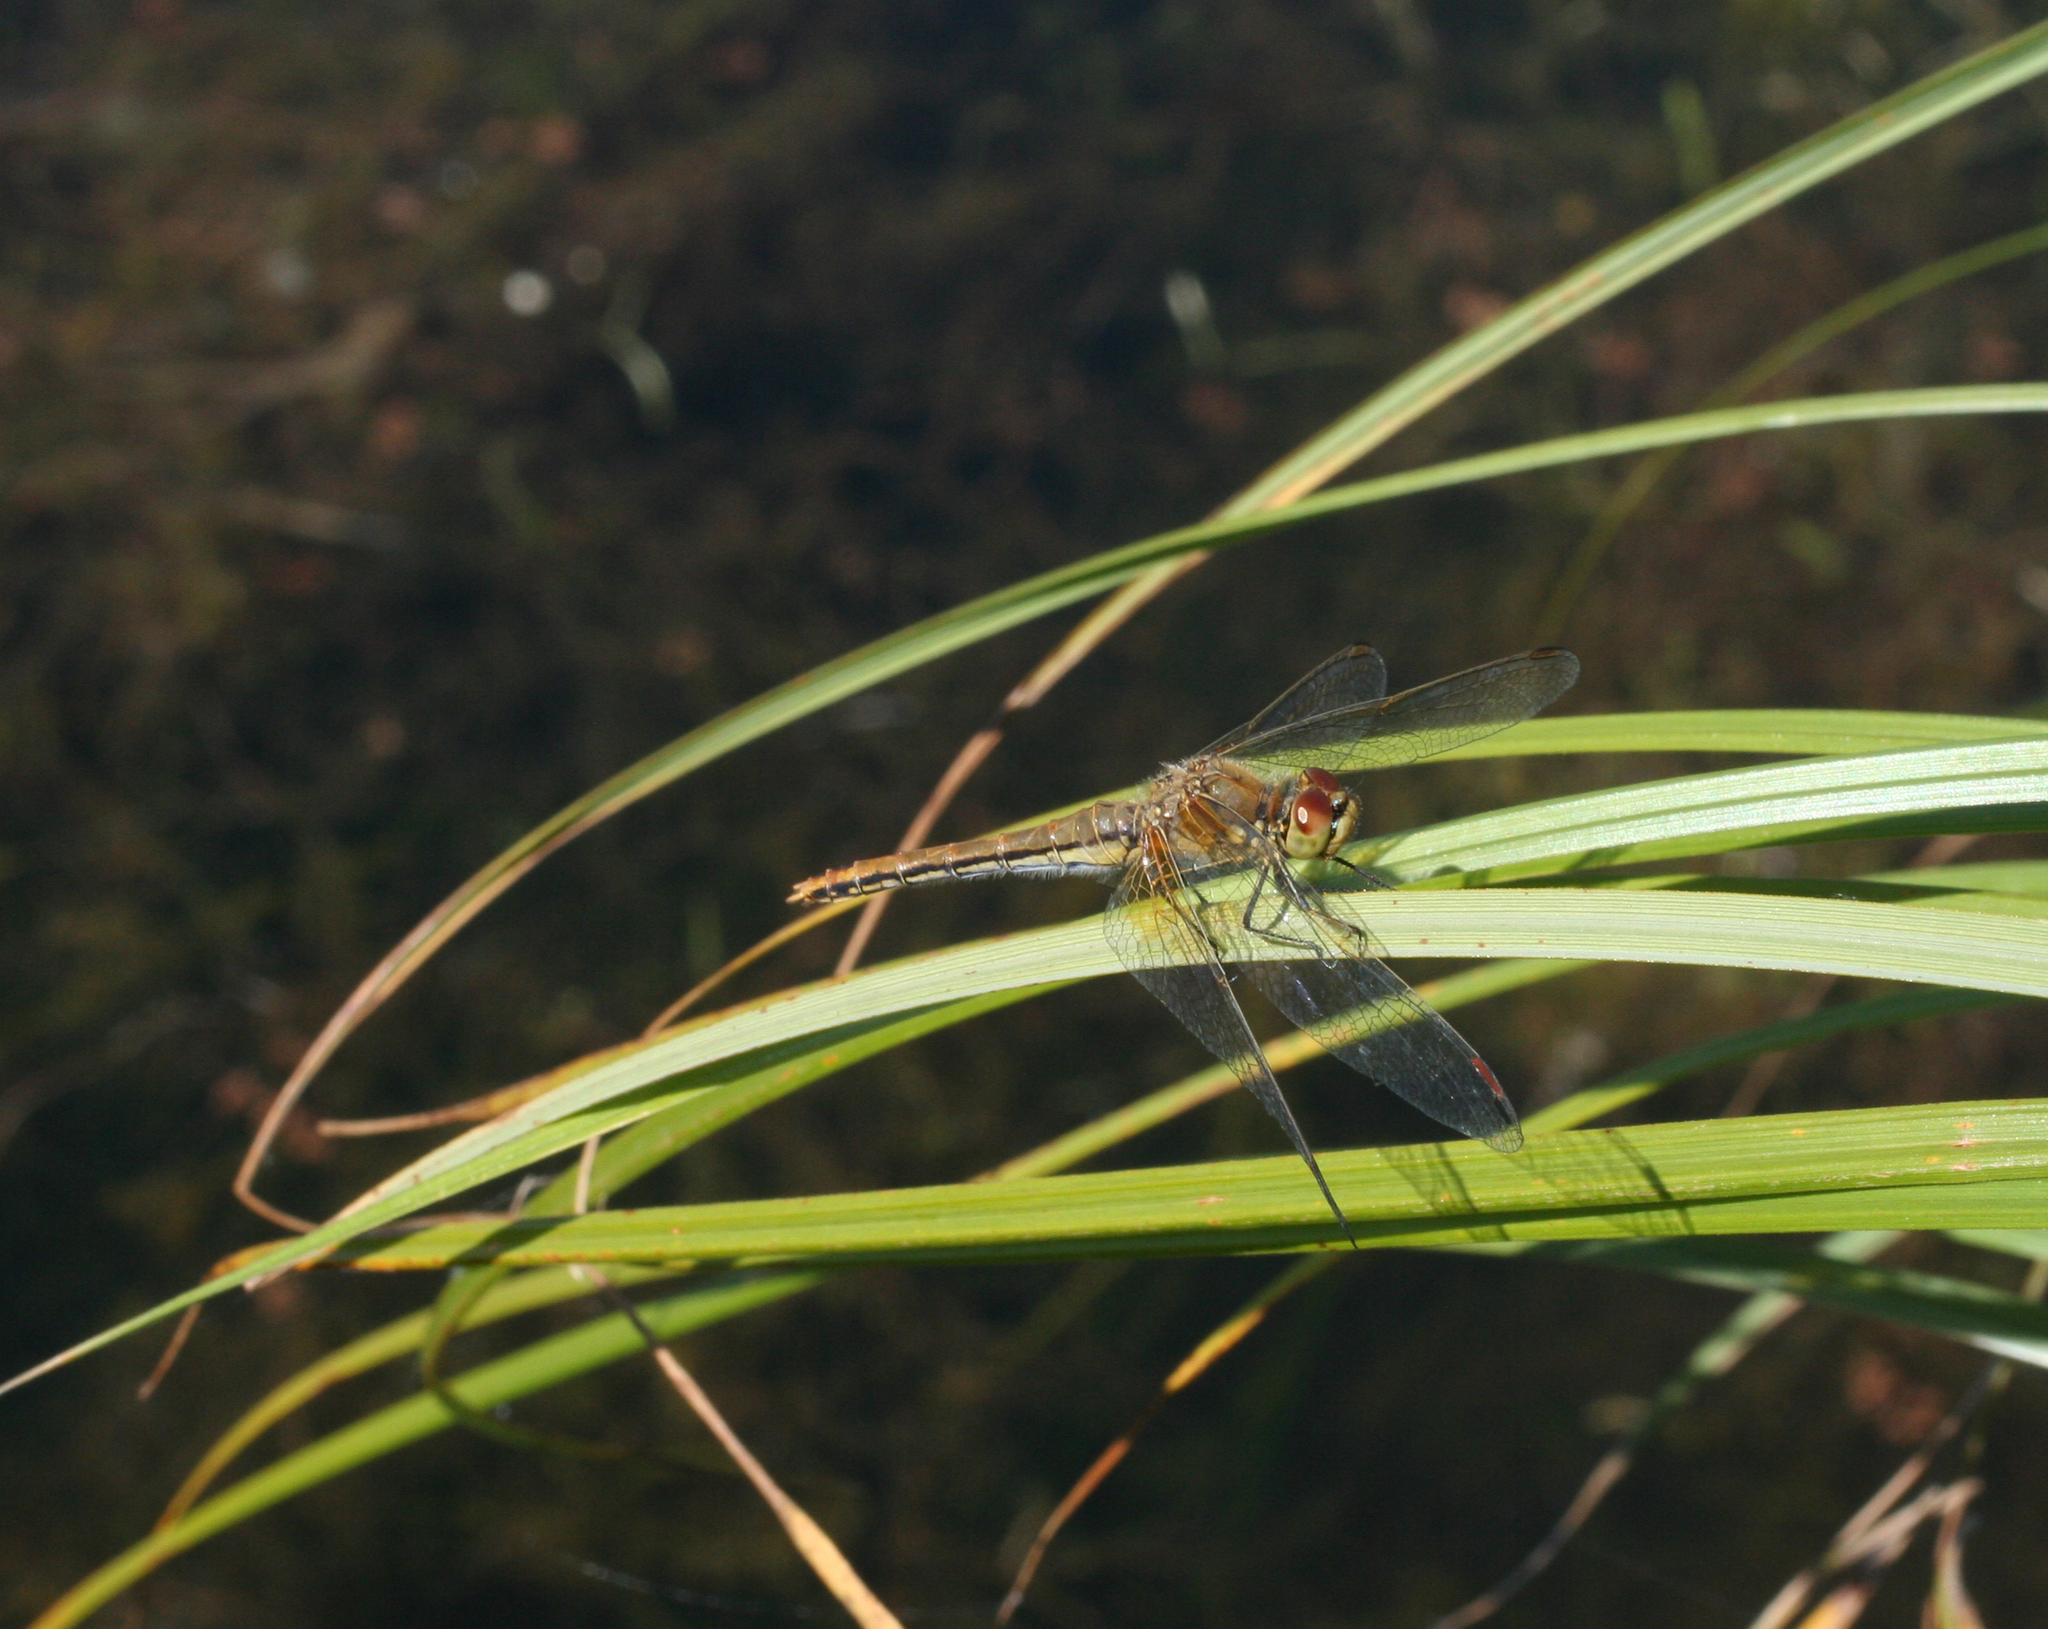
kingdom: Animalia
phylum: Arthropoda
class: Insecta
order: Odonata
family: Libellulidae
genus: Sympetrum
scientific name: Sympetrum flaveolum
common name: Yellow-winged darter
